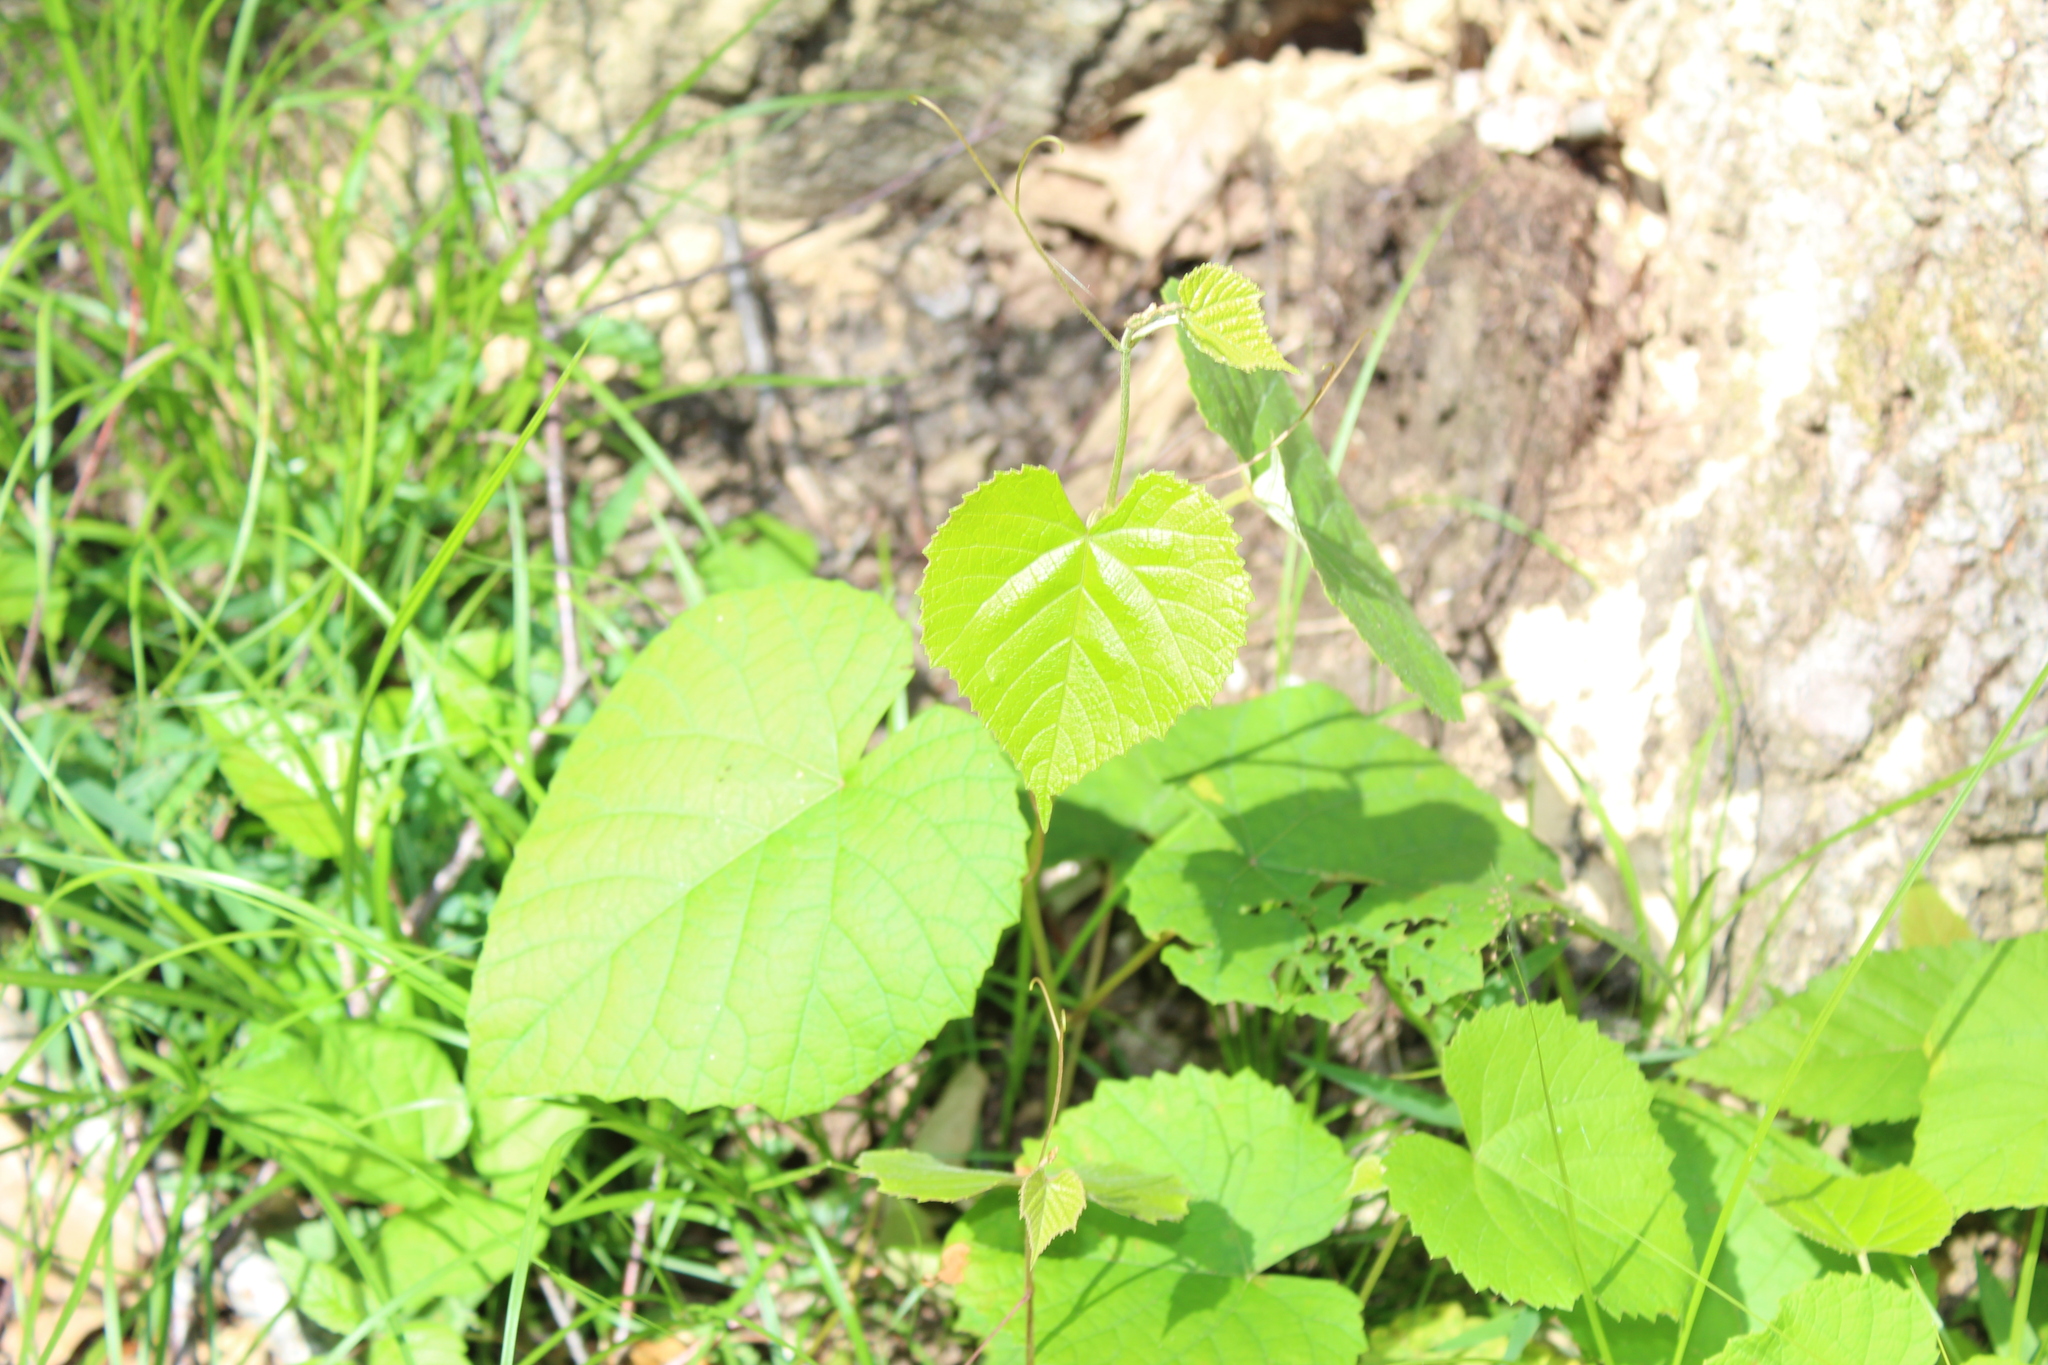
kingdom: Plantae
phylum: Tracheophyta
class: Magnoliopsida
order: Vitales
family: Vitaceae
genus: Vitis
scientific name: Vitis labrusca
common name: Concord grape
